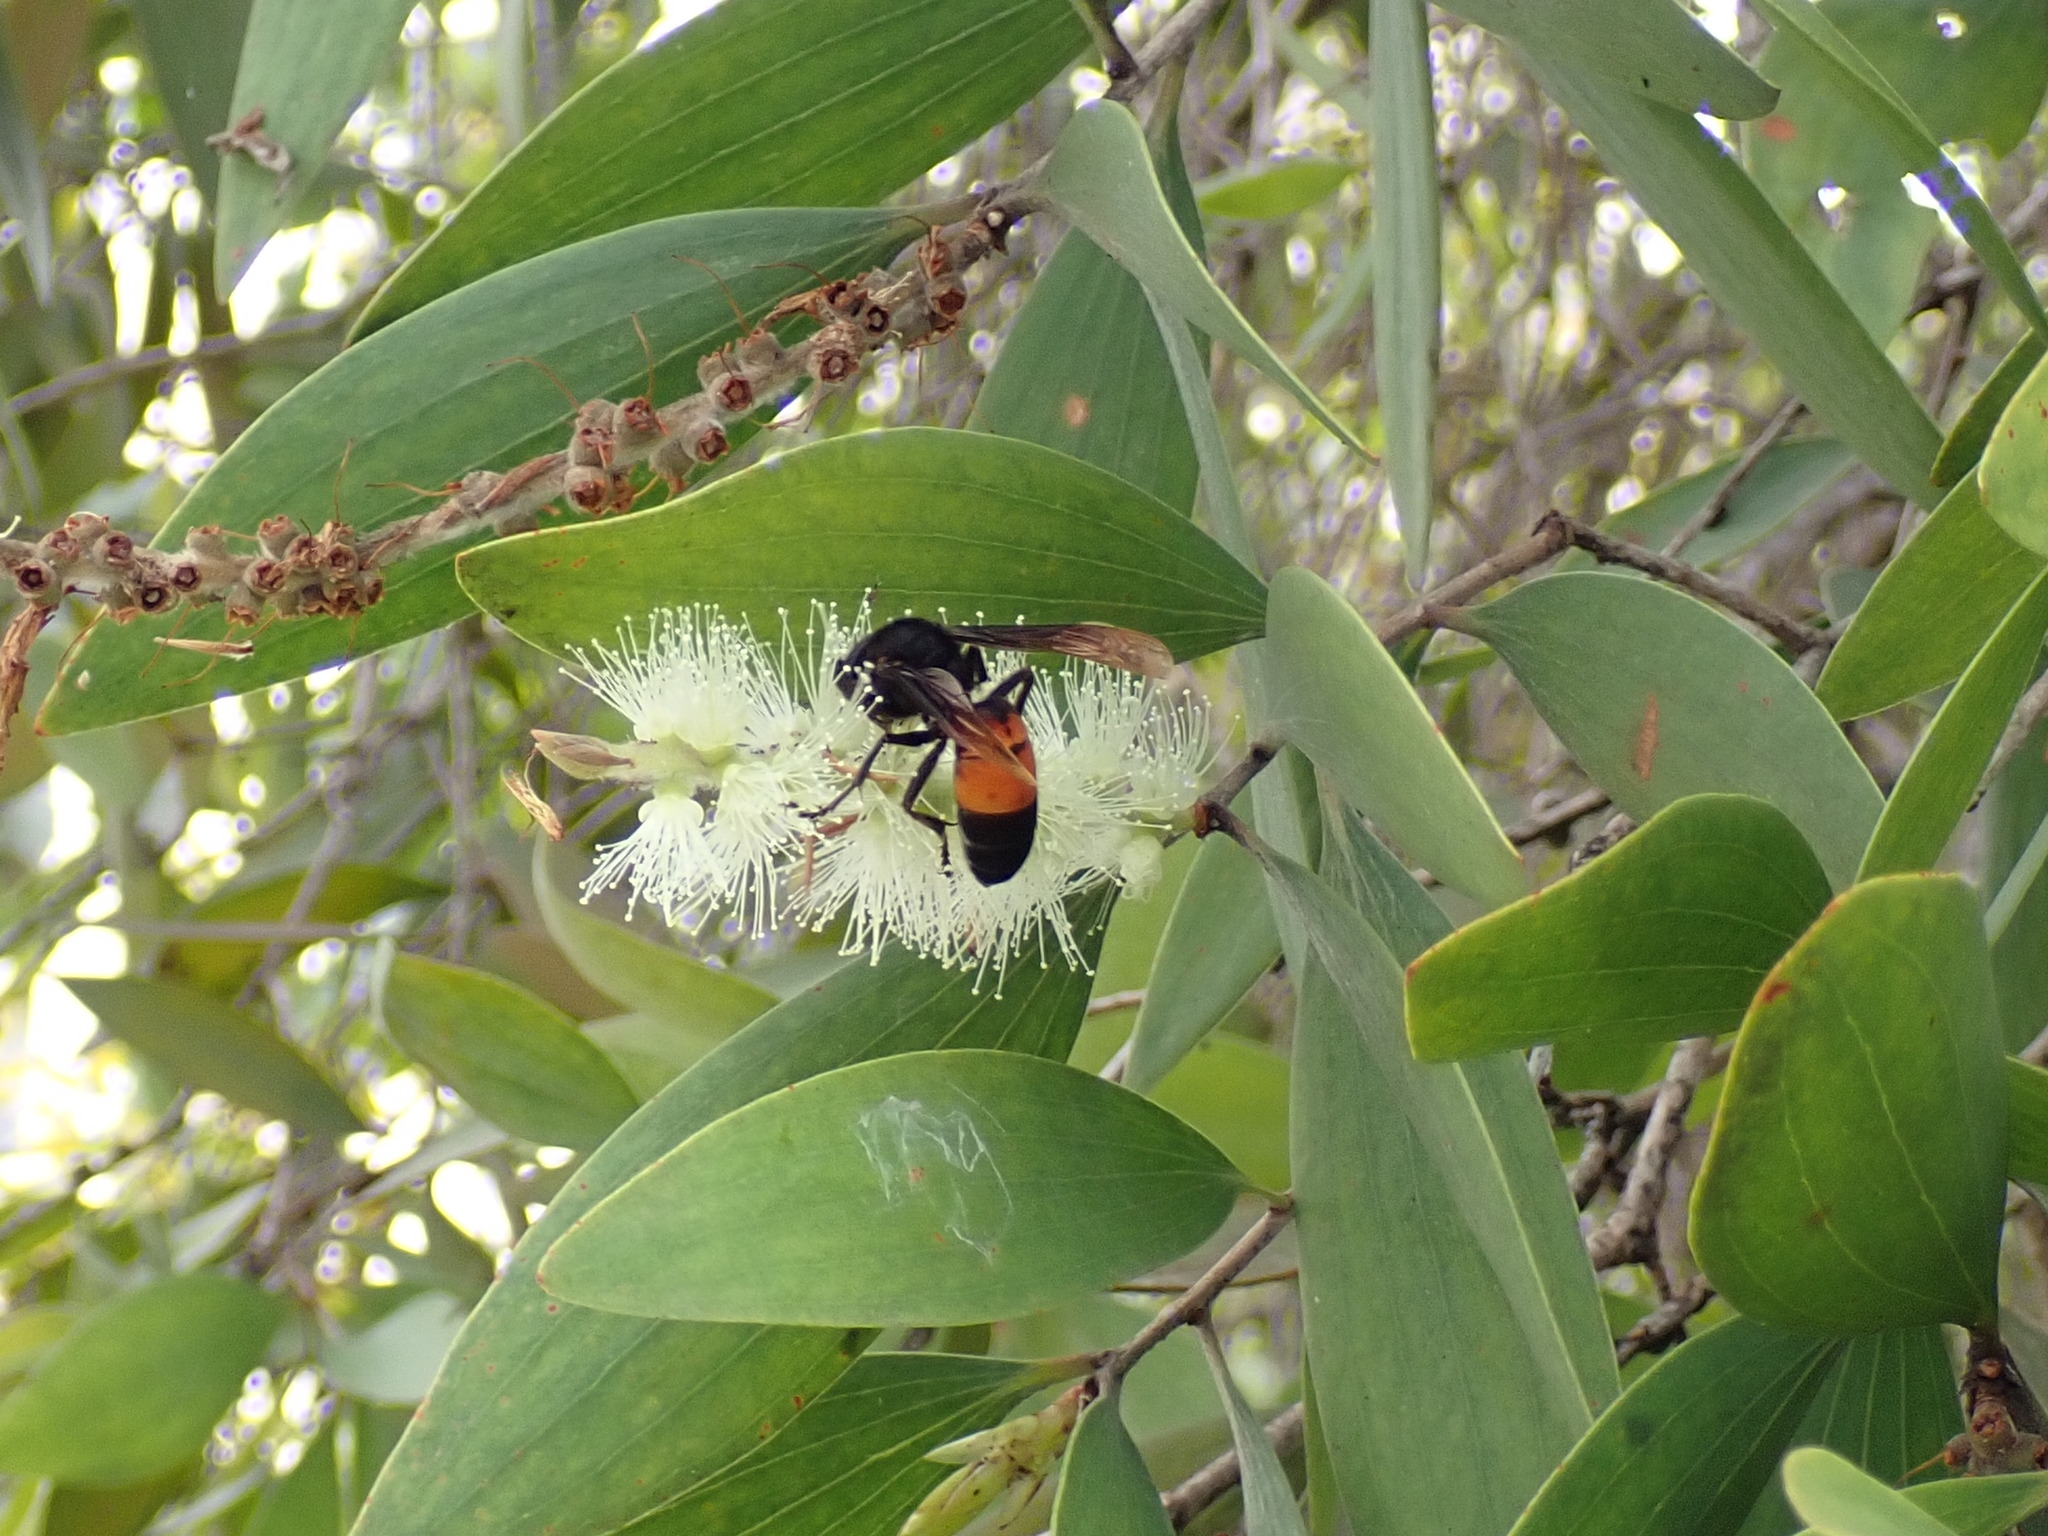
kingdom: Animalia
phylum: Arthropoda
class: Insecta
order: Hymenoptera
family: Vespidae
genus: Vespa
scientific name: Vespa affinis
